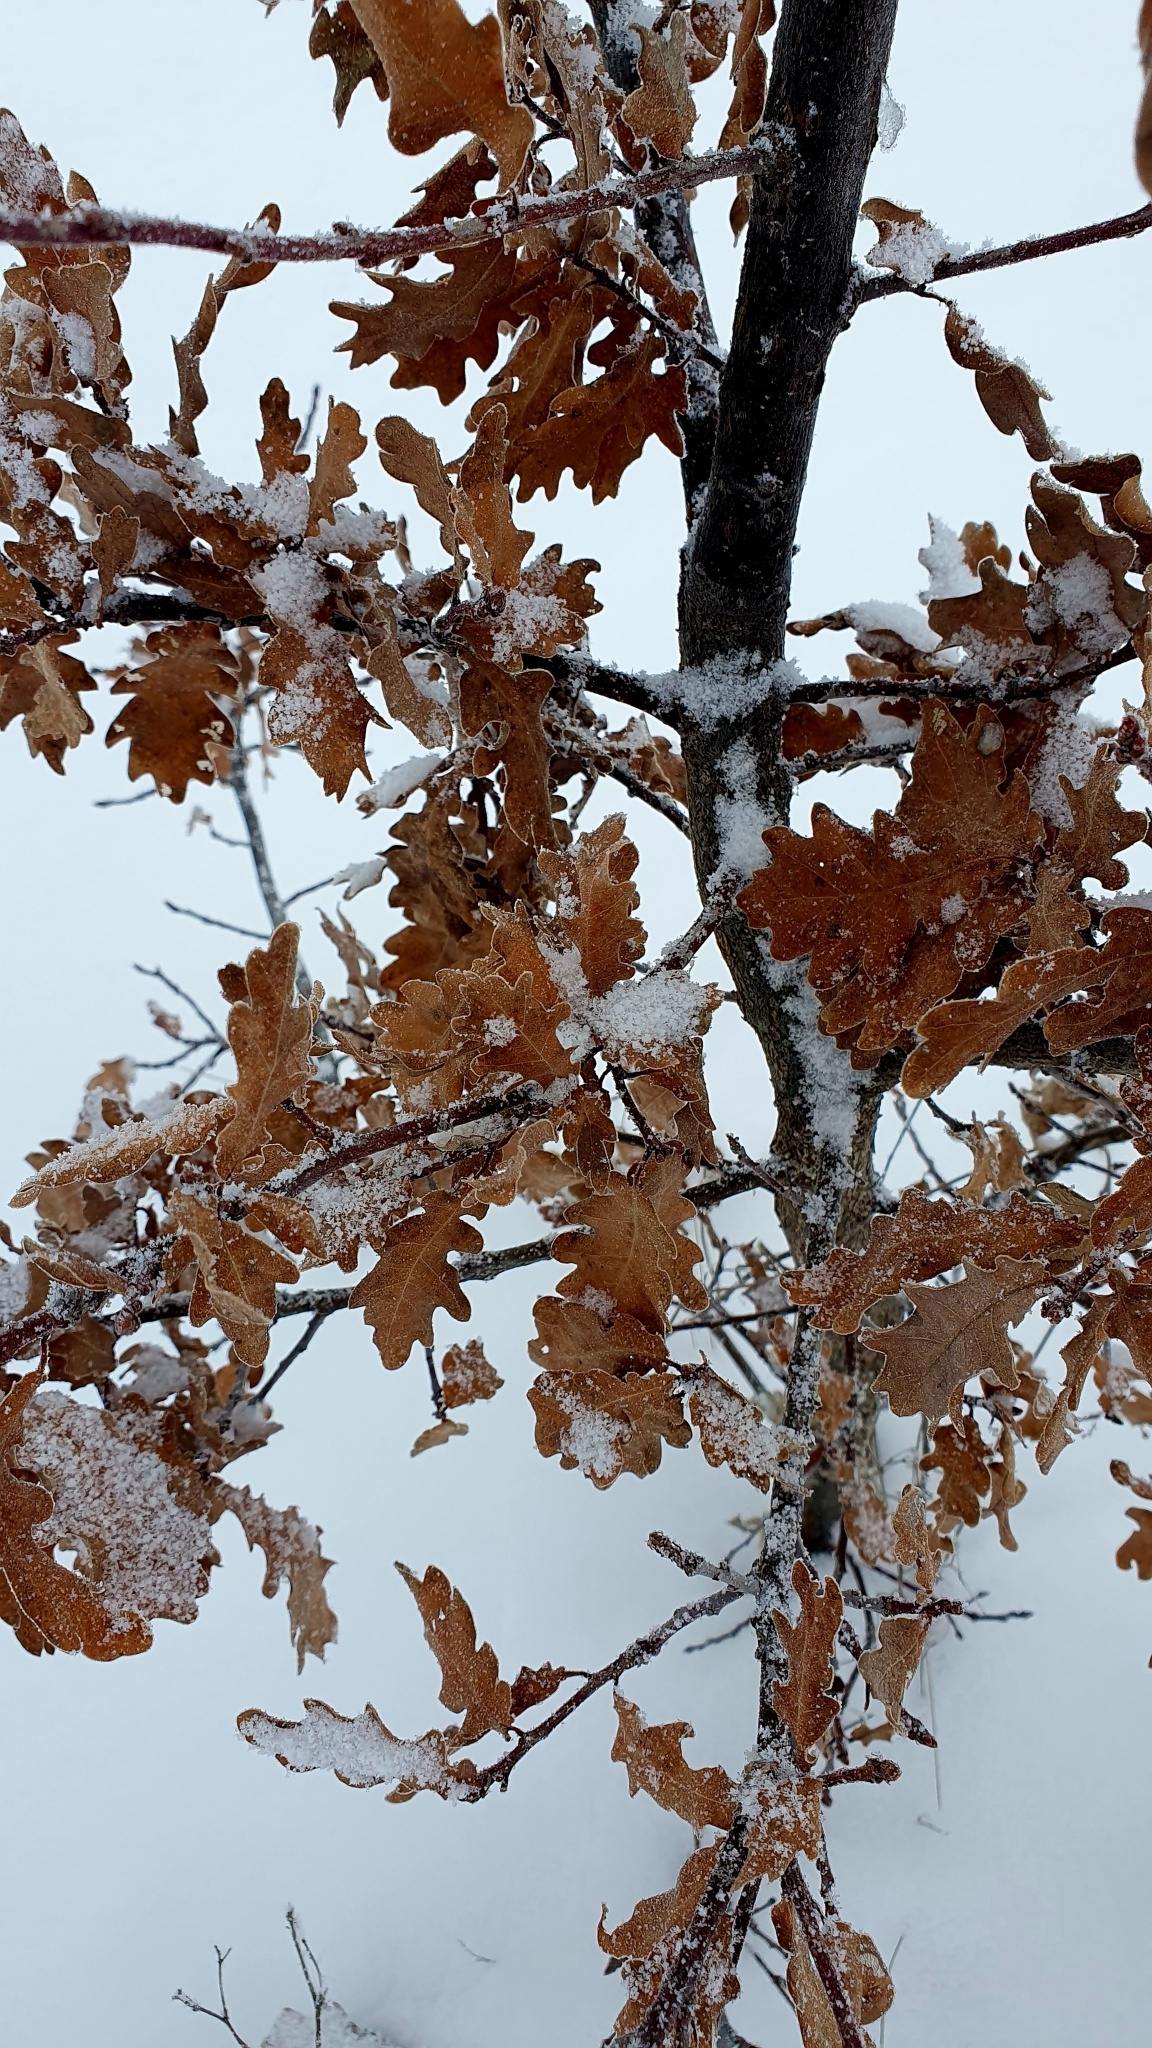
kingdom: Plantae
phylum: Tracheophyta
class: Magnoliopsida
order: Fagales
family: Fagaceae
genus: Quercus
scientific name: Quercus robur
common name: Pedunculate oak
